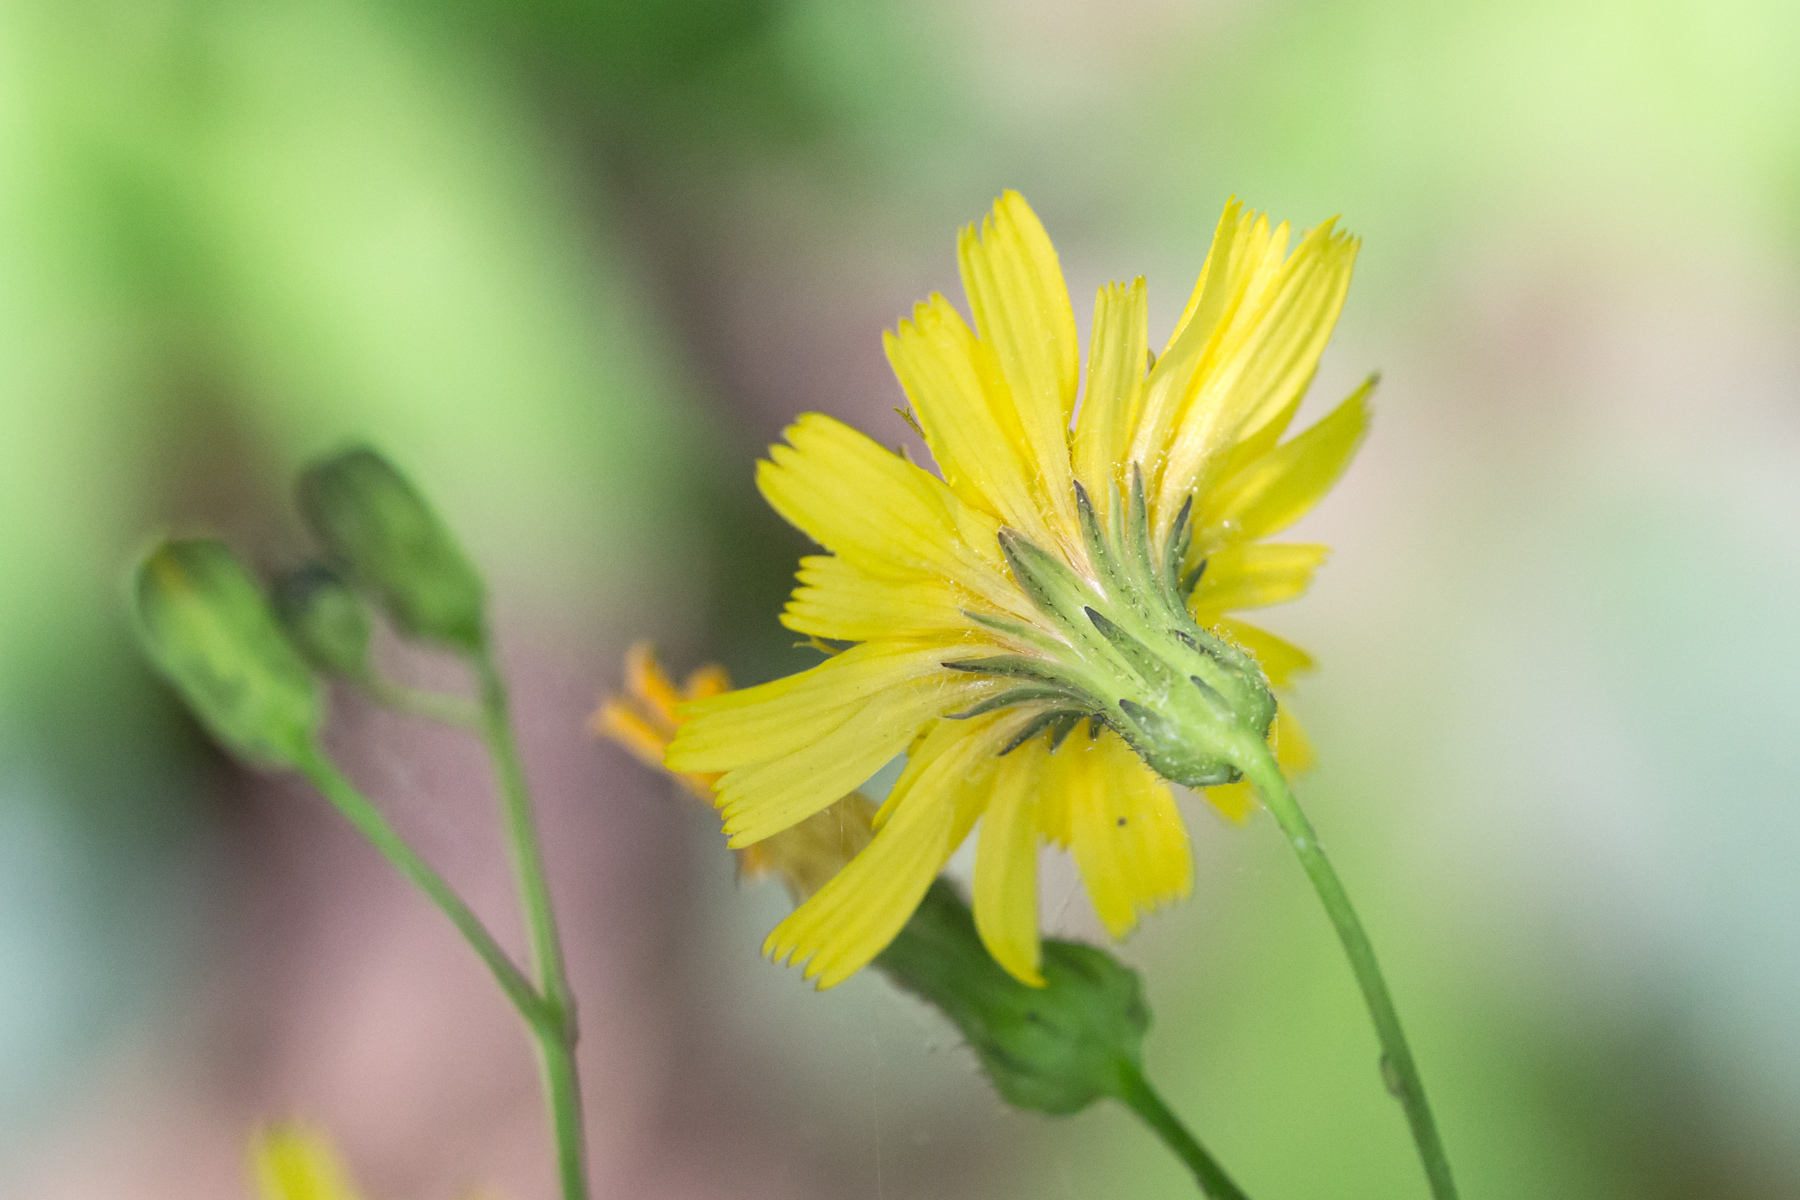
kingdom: Plantae
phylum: Tracheophyta
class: Magnoliopsida
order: Asterales
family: Asteraceae
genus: Hieracium
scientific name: Hieracium venosum
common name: Rattlesnake hawkweed
